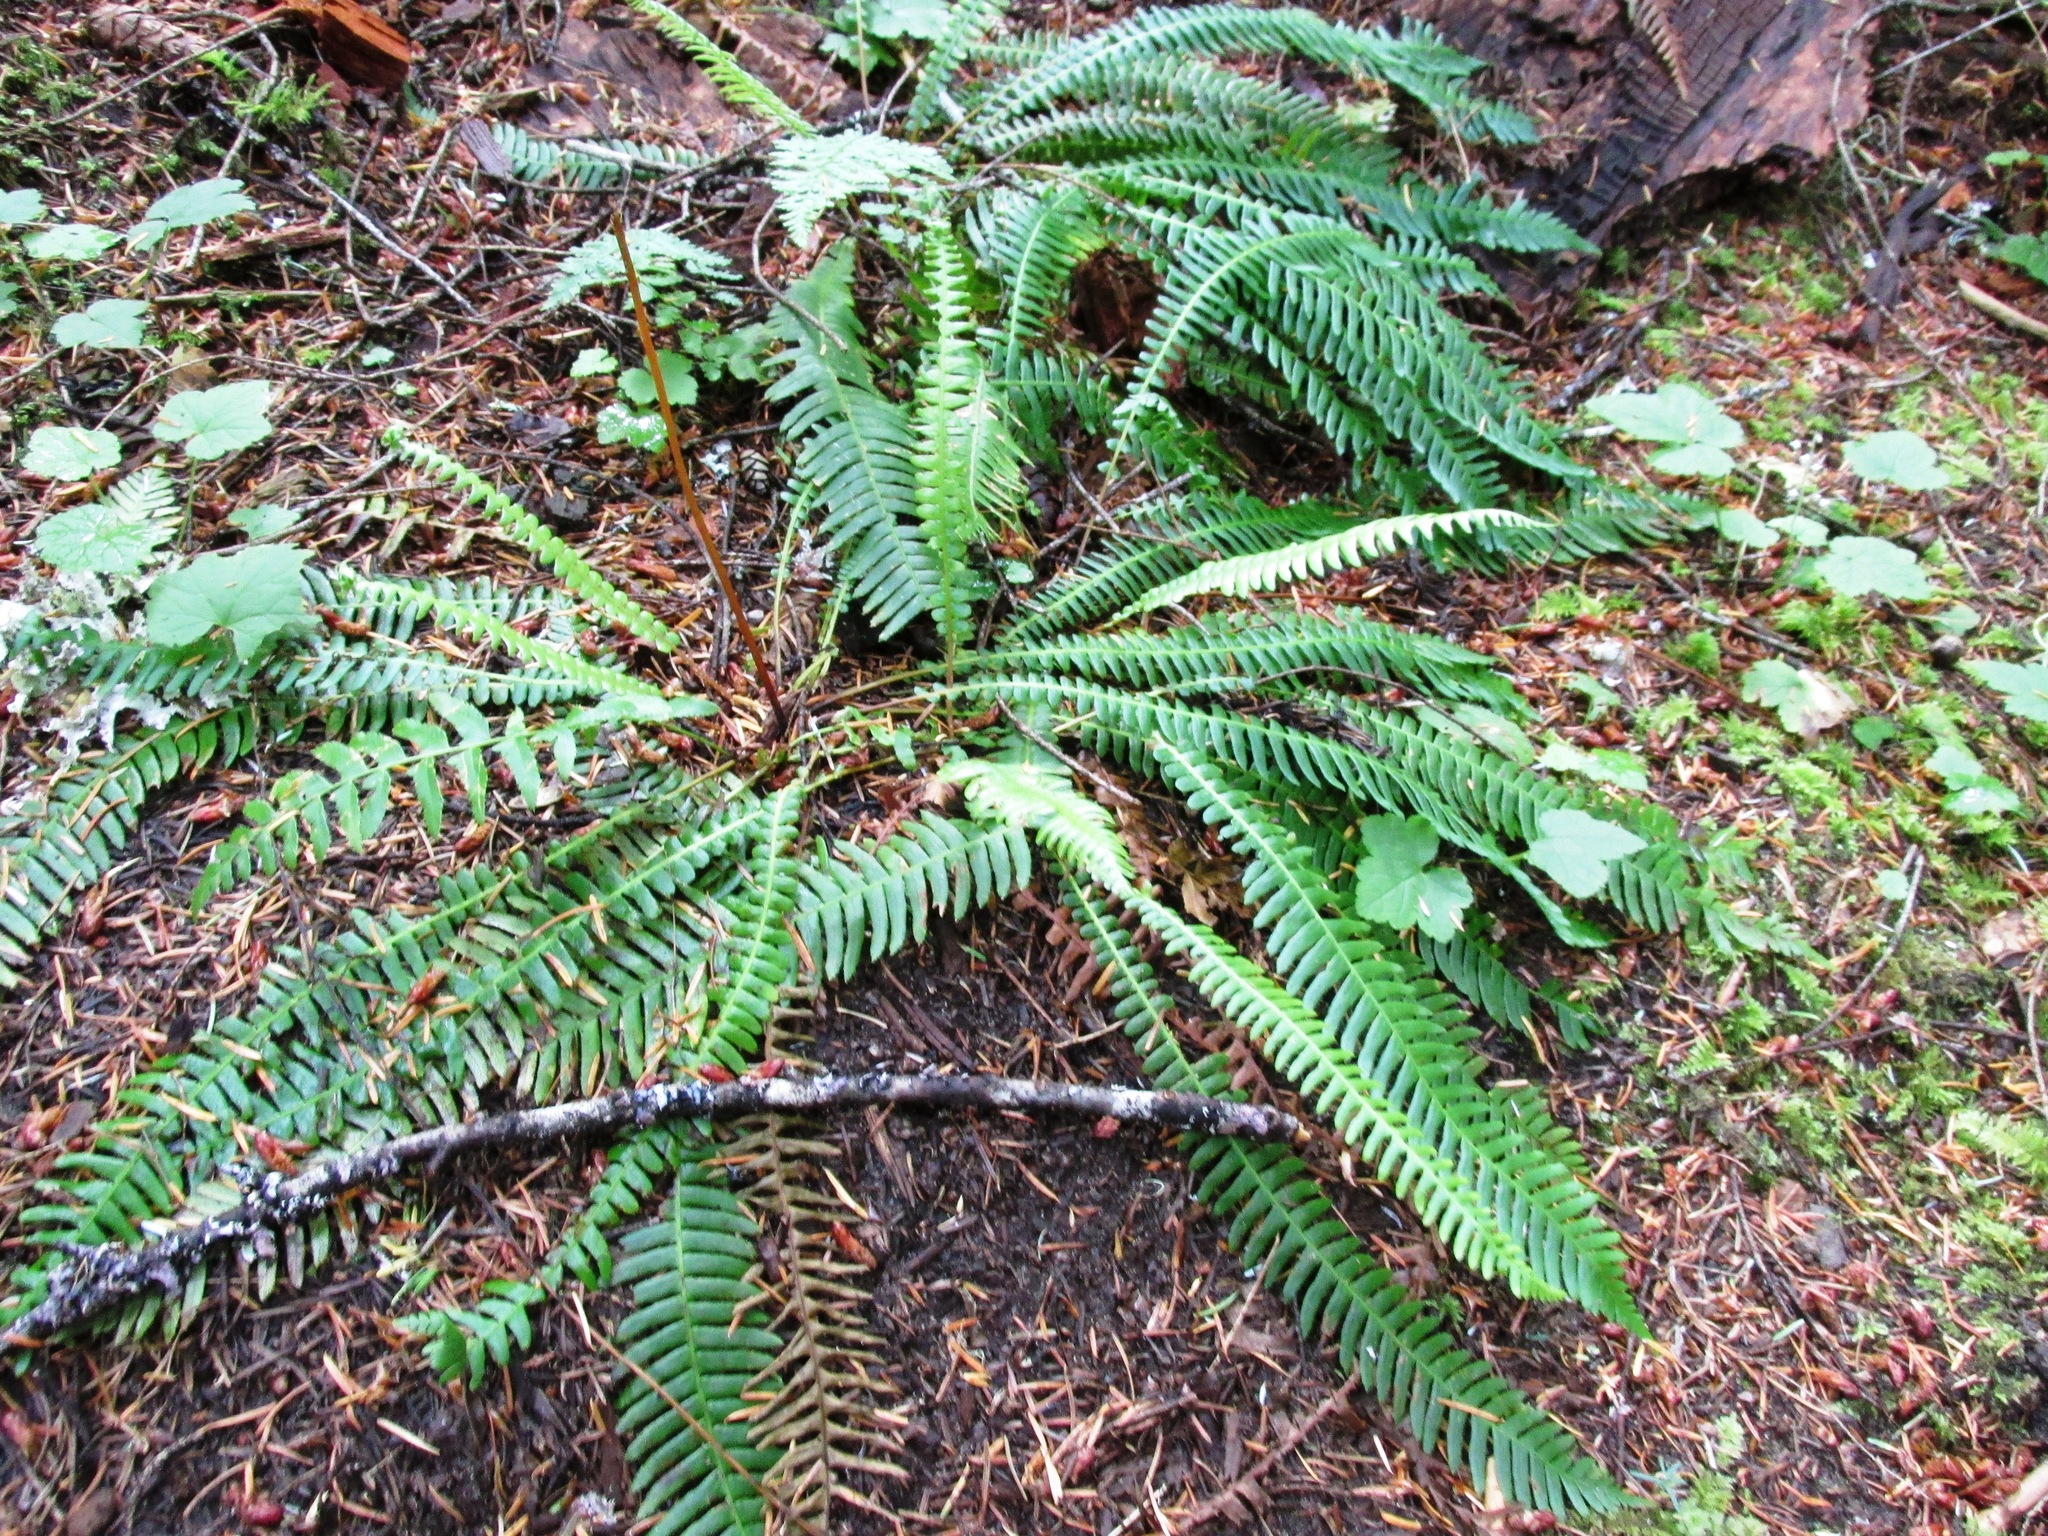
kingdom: Plantae
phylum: Tracheophyta
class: Polypodiopsida
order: Polypodiales
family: Blechnaceae
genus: Struthiopteris
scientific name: Struthiopteris spicant
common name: Deer fern
